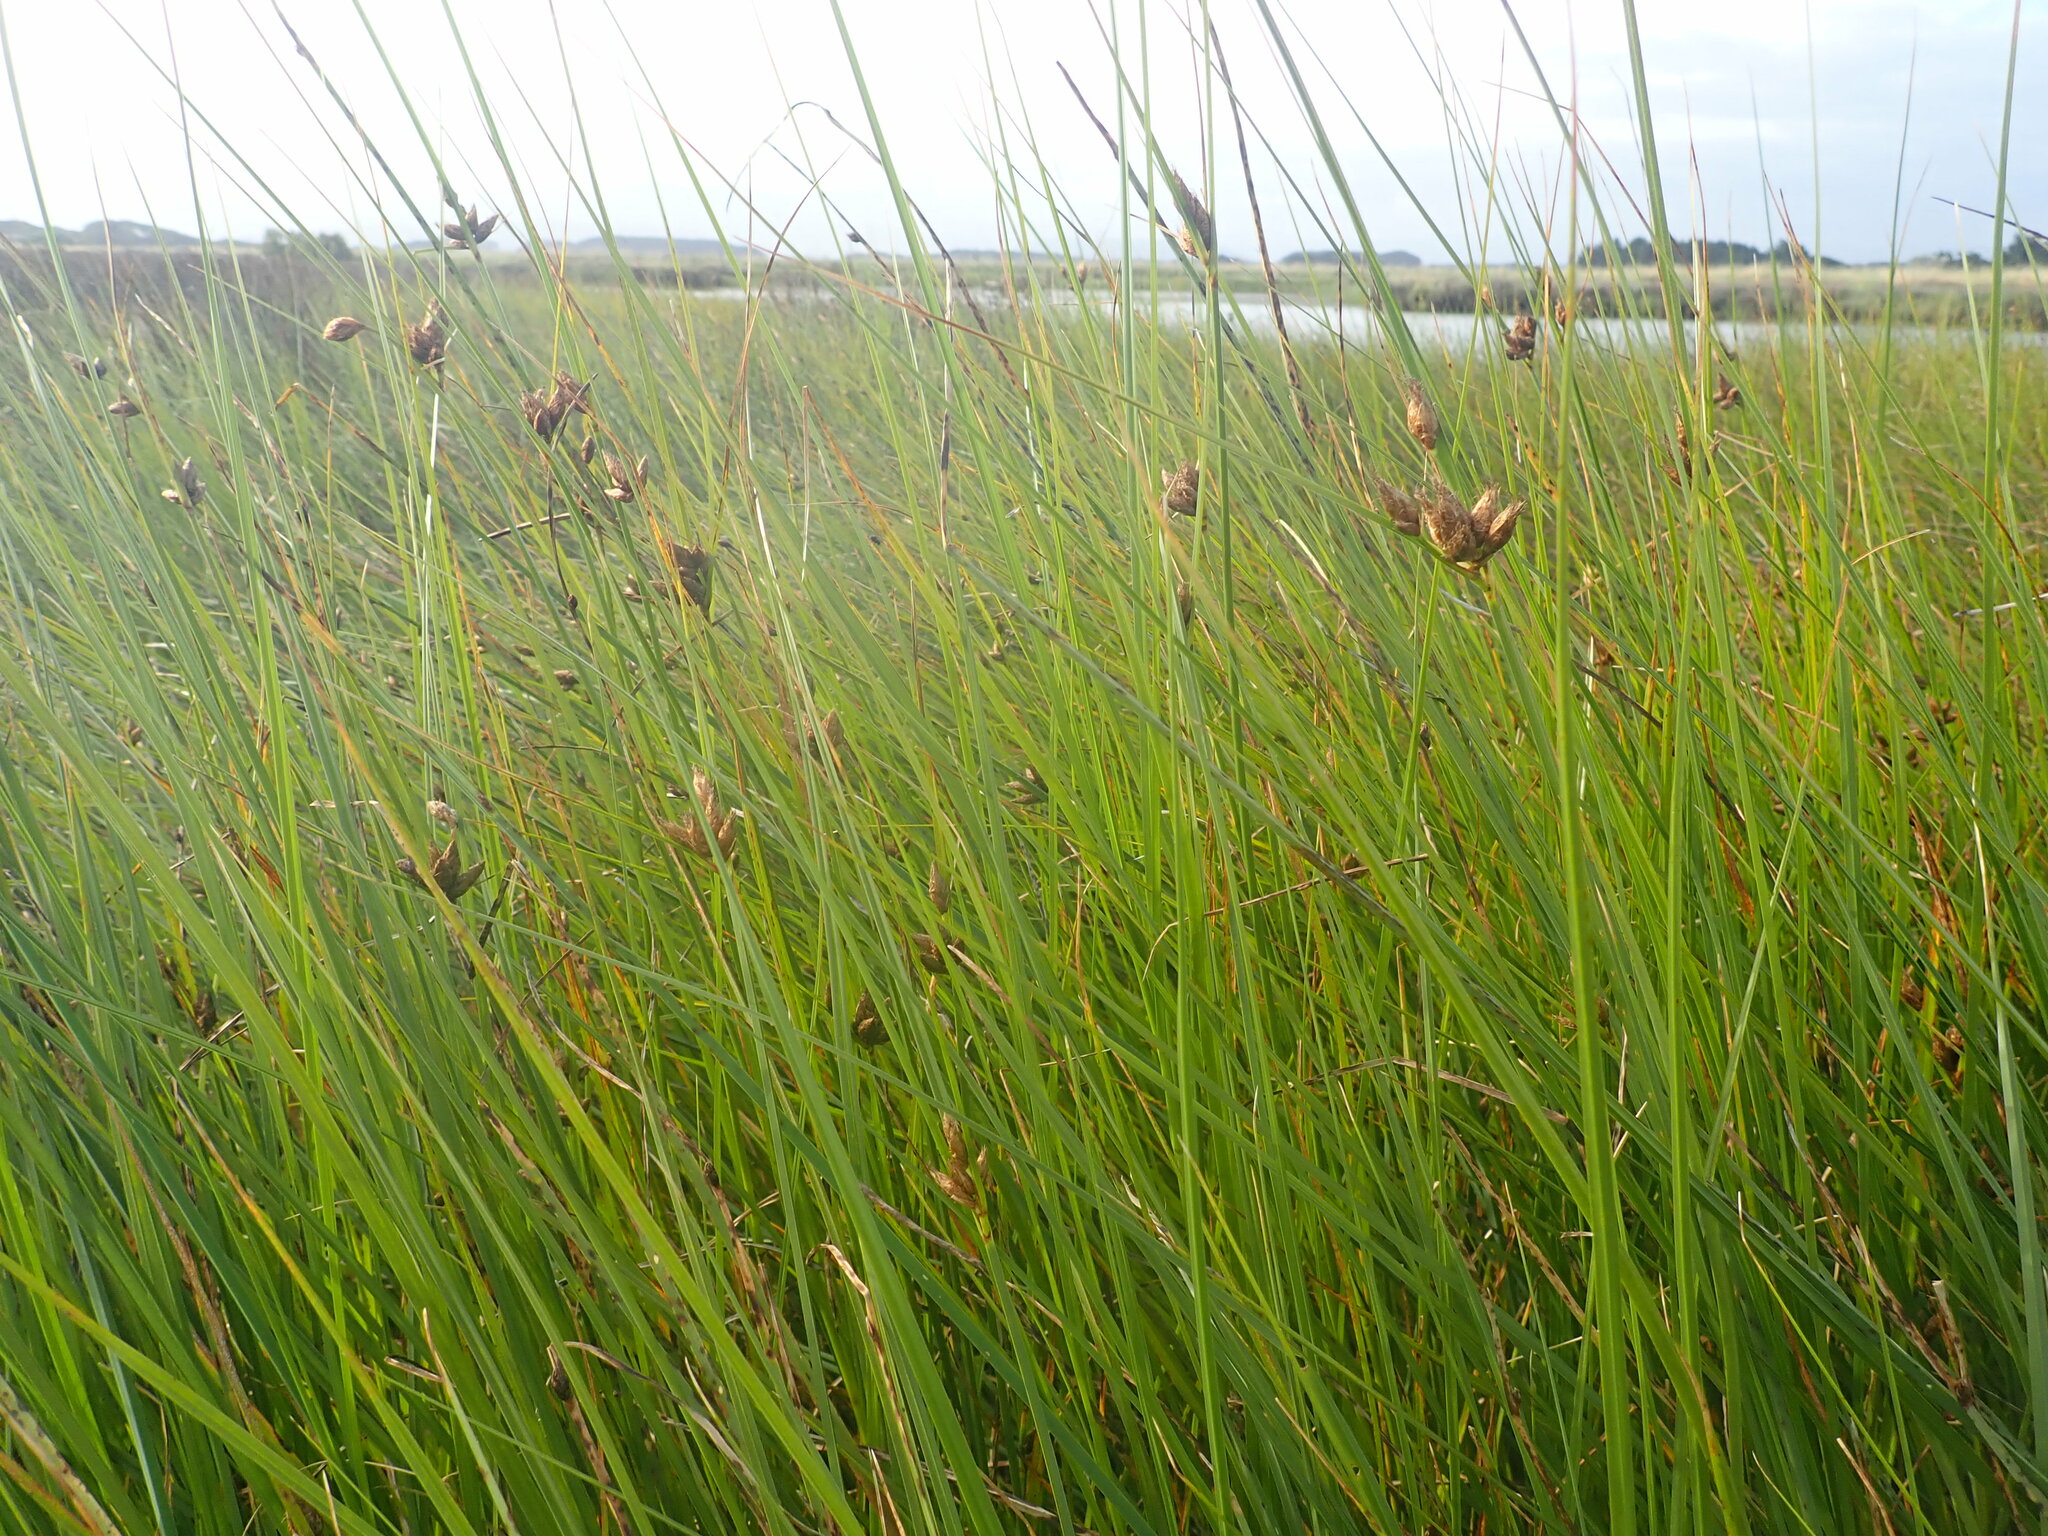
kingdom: Plantae
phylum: Tracheophyta
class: Liliopsida
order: Poales
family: Cyperaceae
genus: Bolboschoenus
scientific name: Bolboschoenus caldwellii
